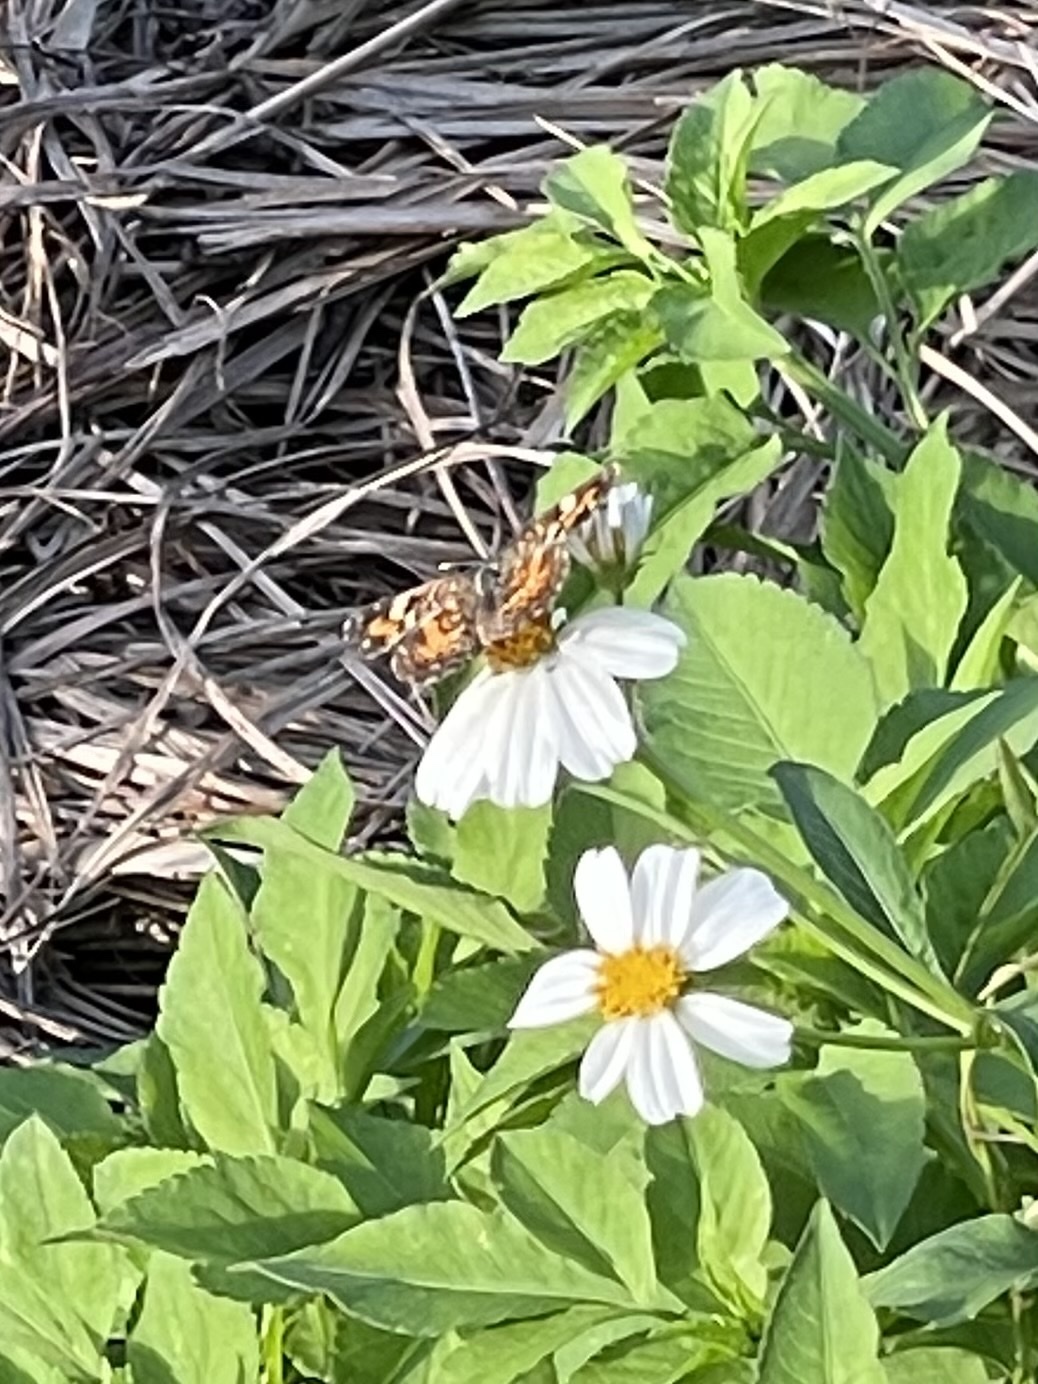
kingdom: Animalia
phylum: Arthropoda
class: Insecta
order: Lepidoptera
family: Nymphalidae
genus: Phyciodes
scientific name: Phyciodes phaon
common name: Phaon crescent
